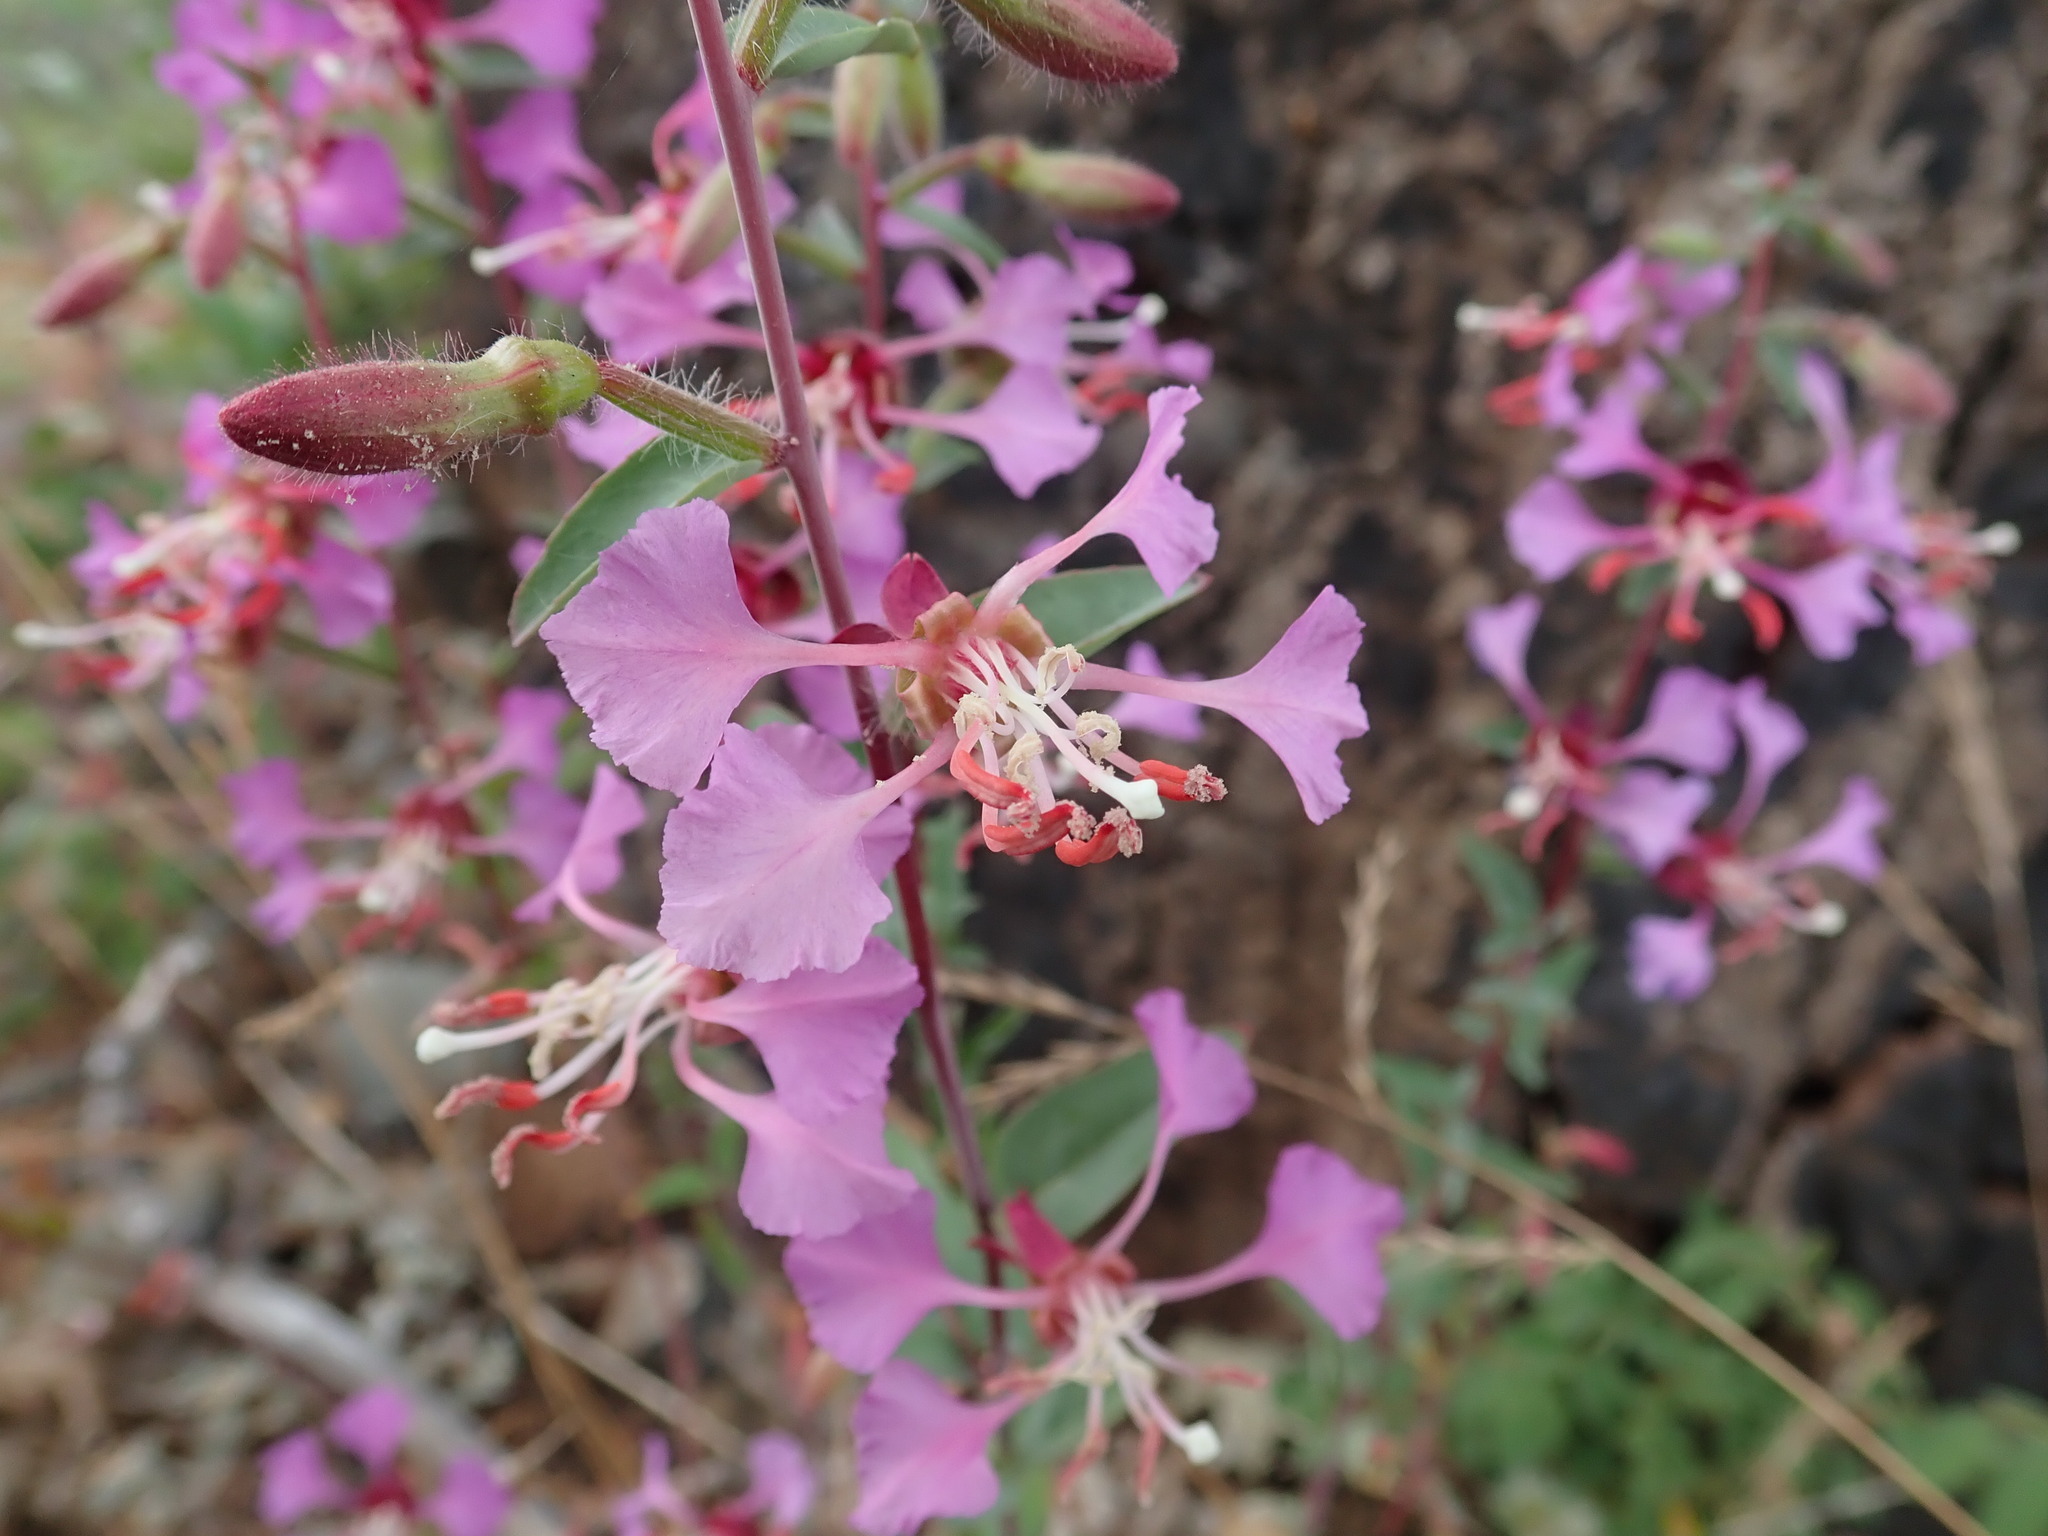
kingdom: Plantae
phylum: Tracheophyta
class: Magnoliopsida
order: Myrtales
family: Onagraceae
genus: Clarkia
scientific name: Clarkia unguiculata
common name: Clarkia
